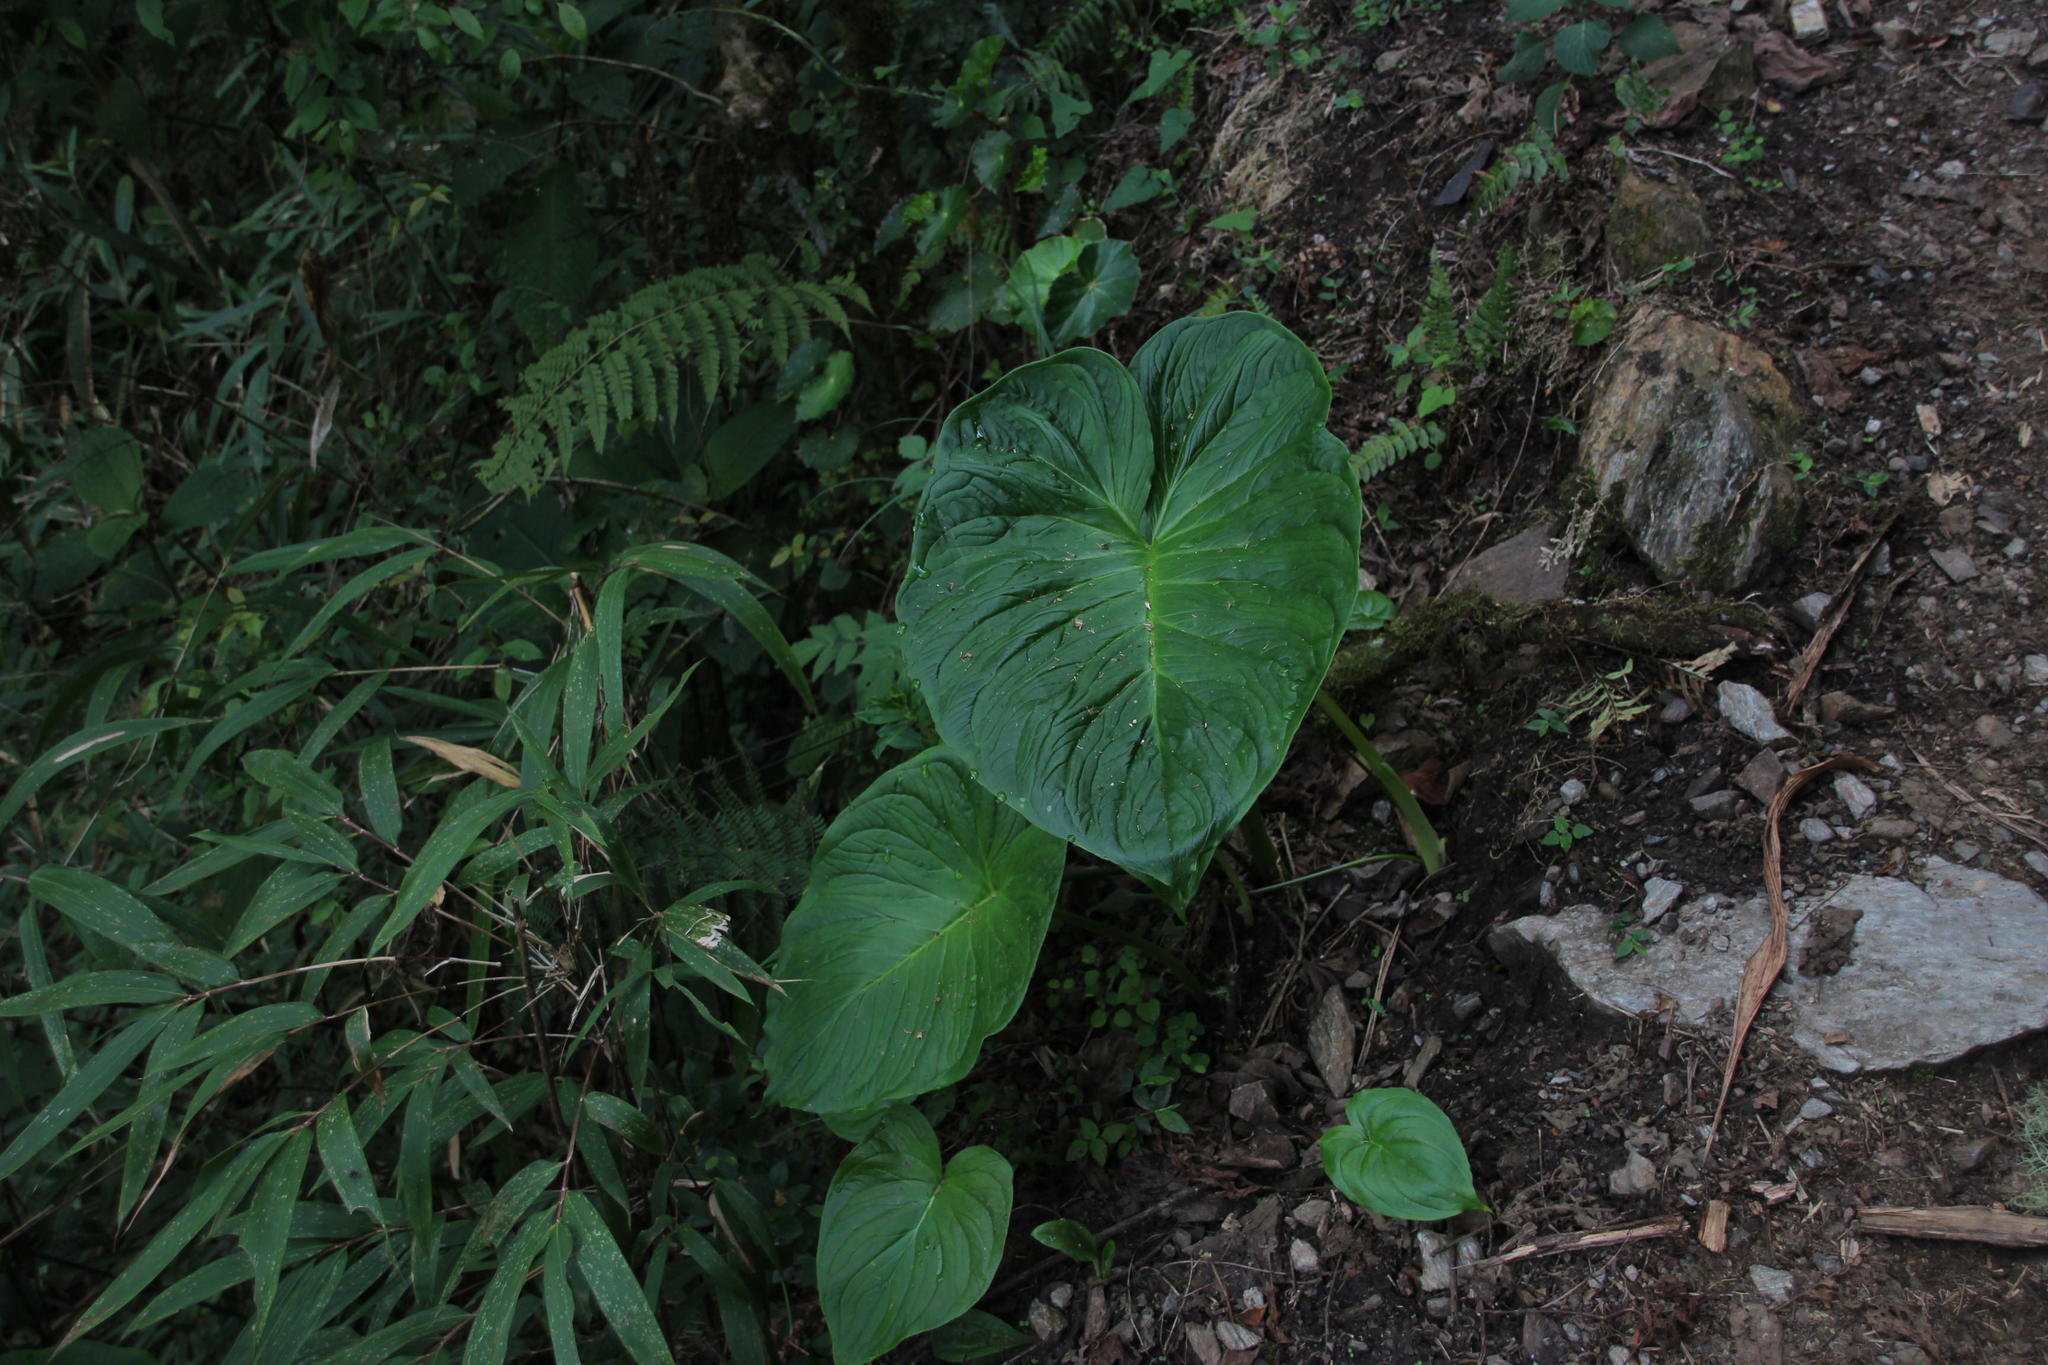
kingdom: Plantae
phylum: Tracheophyta
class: Liliopsida
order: Alismatales
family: Araceae
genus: Spathantheum
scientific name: Spathantheum orbignyanum
